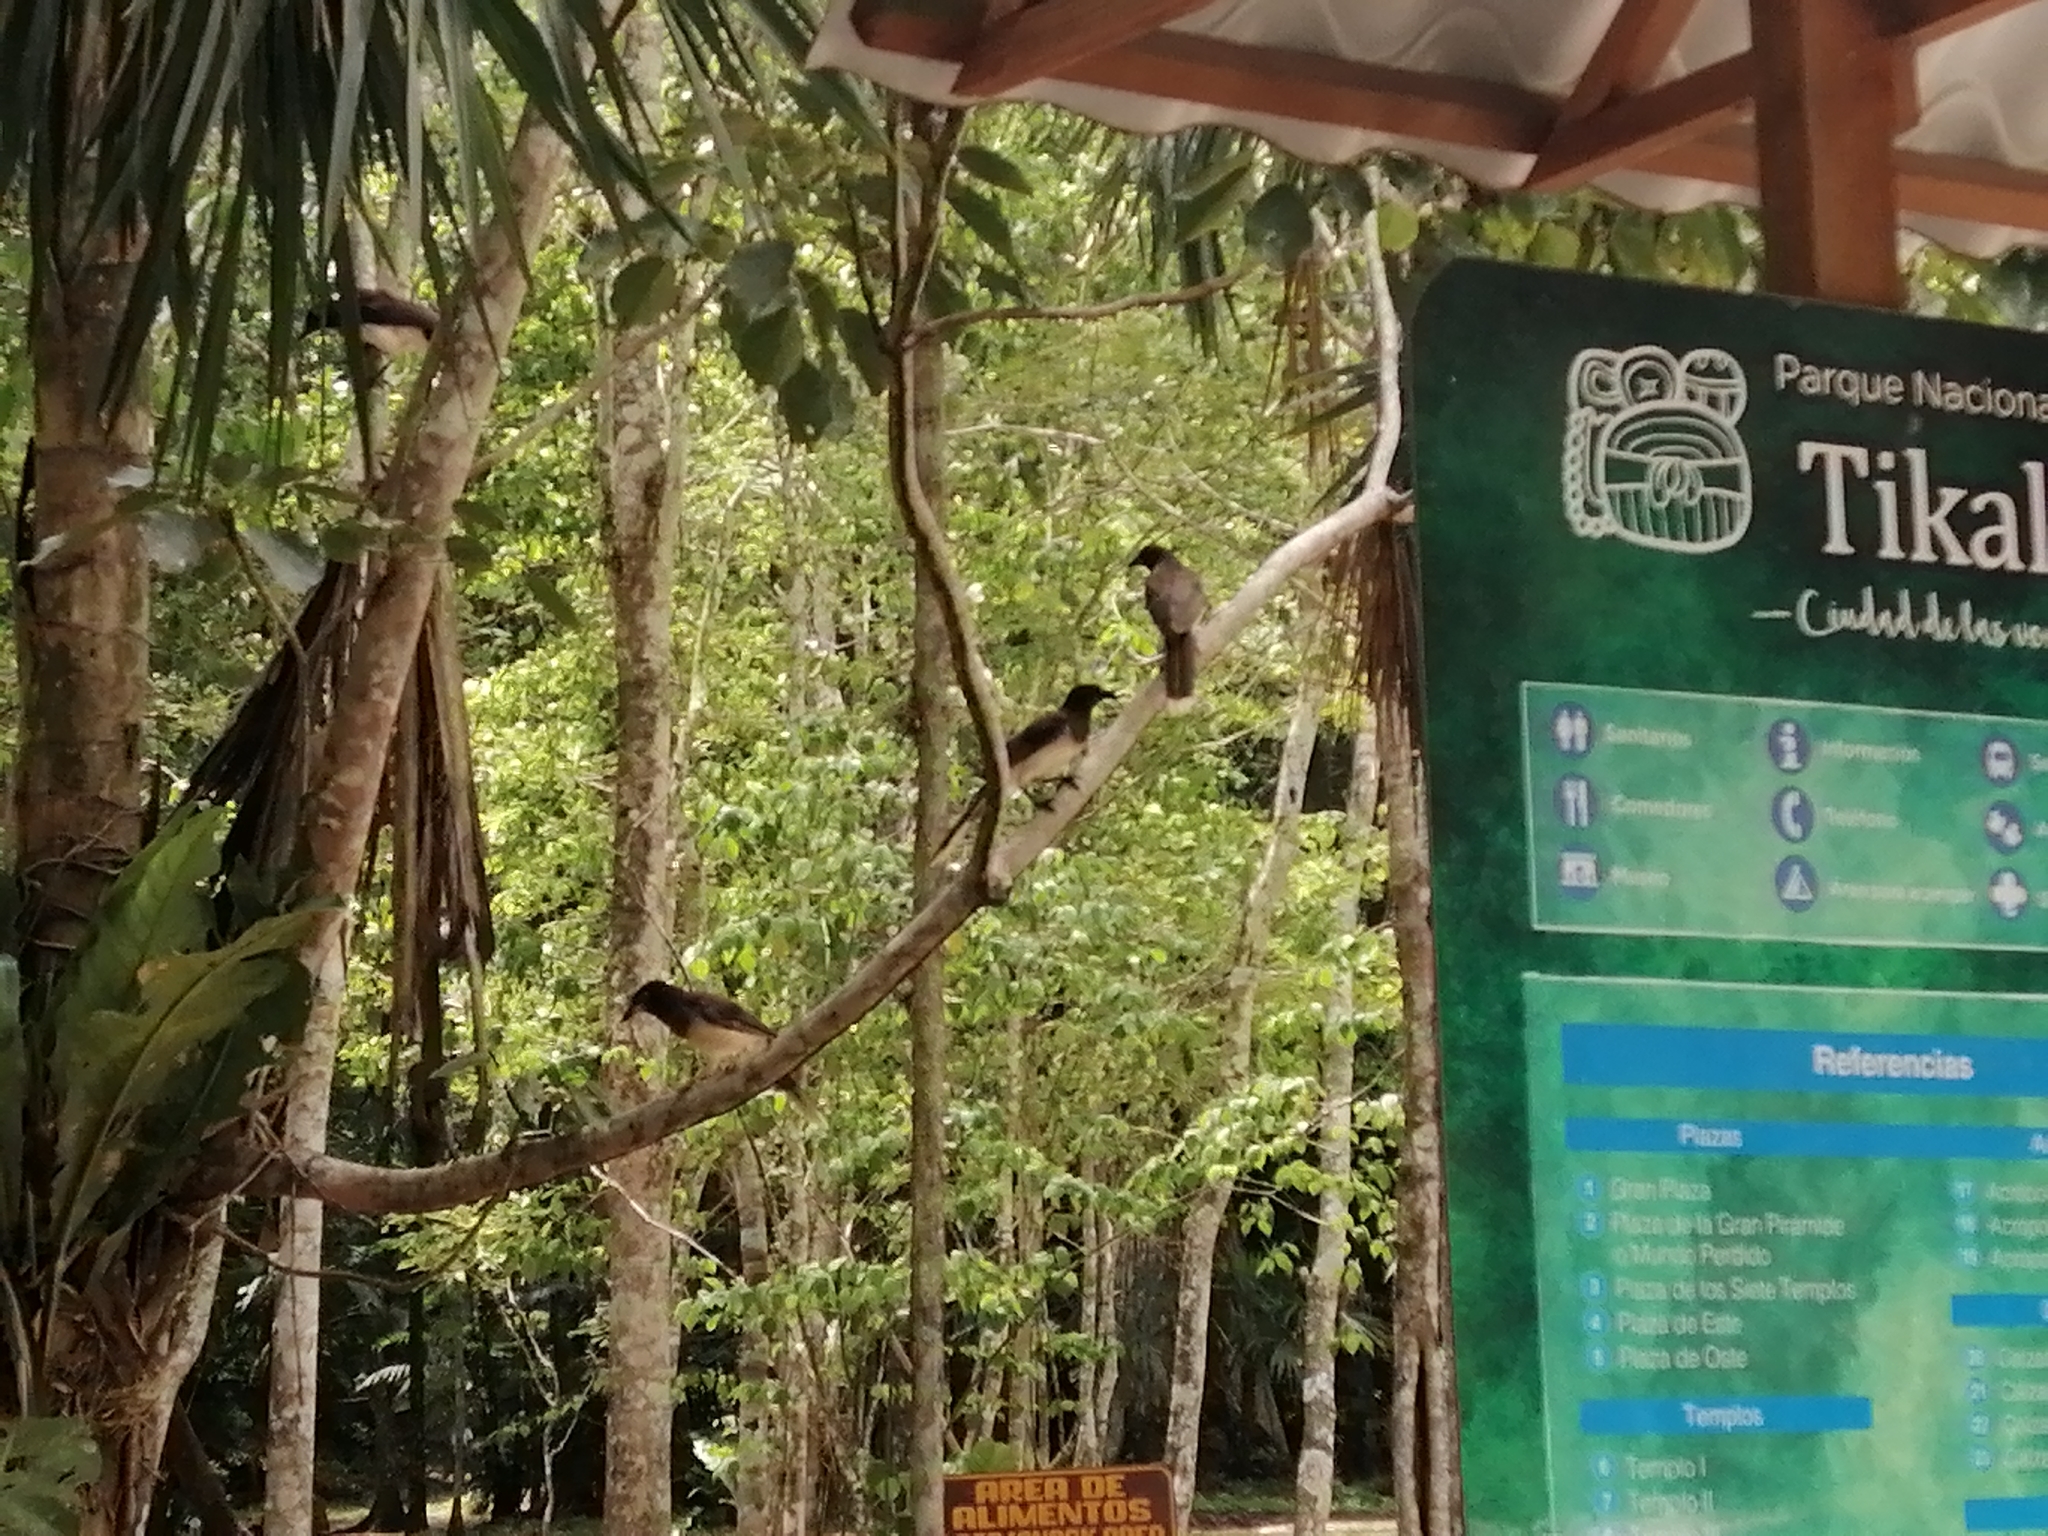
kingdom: Animalia
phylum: Chordata
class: Aves
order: Passeriformes
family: Corvidae
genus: Psilorhinus
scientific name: Psilorhinus morio
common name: Brown jay
